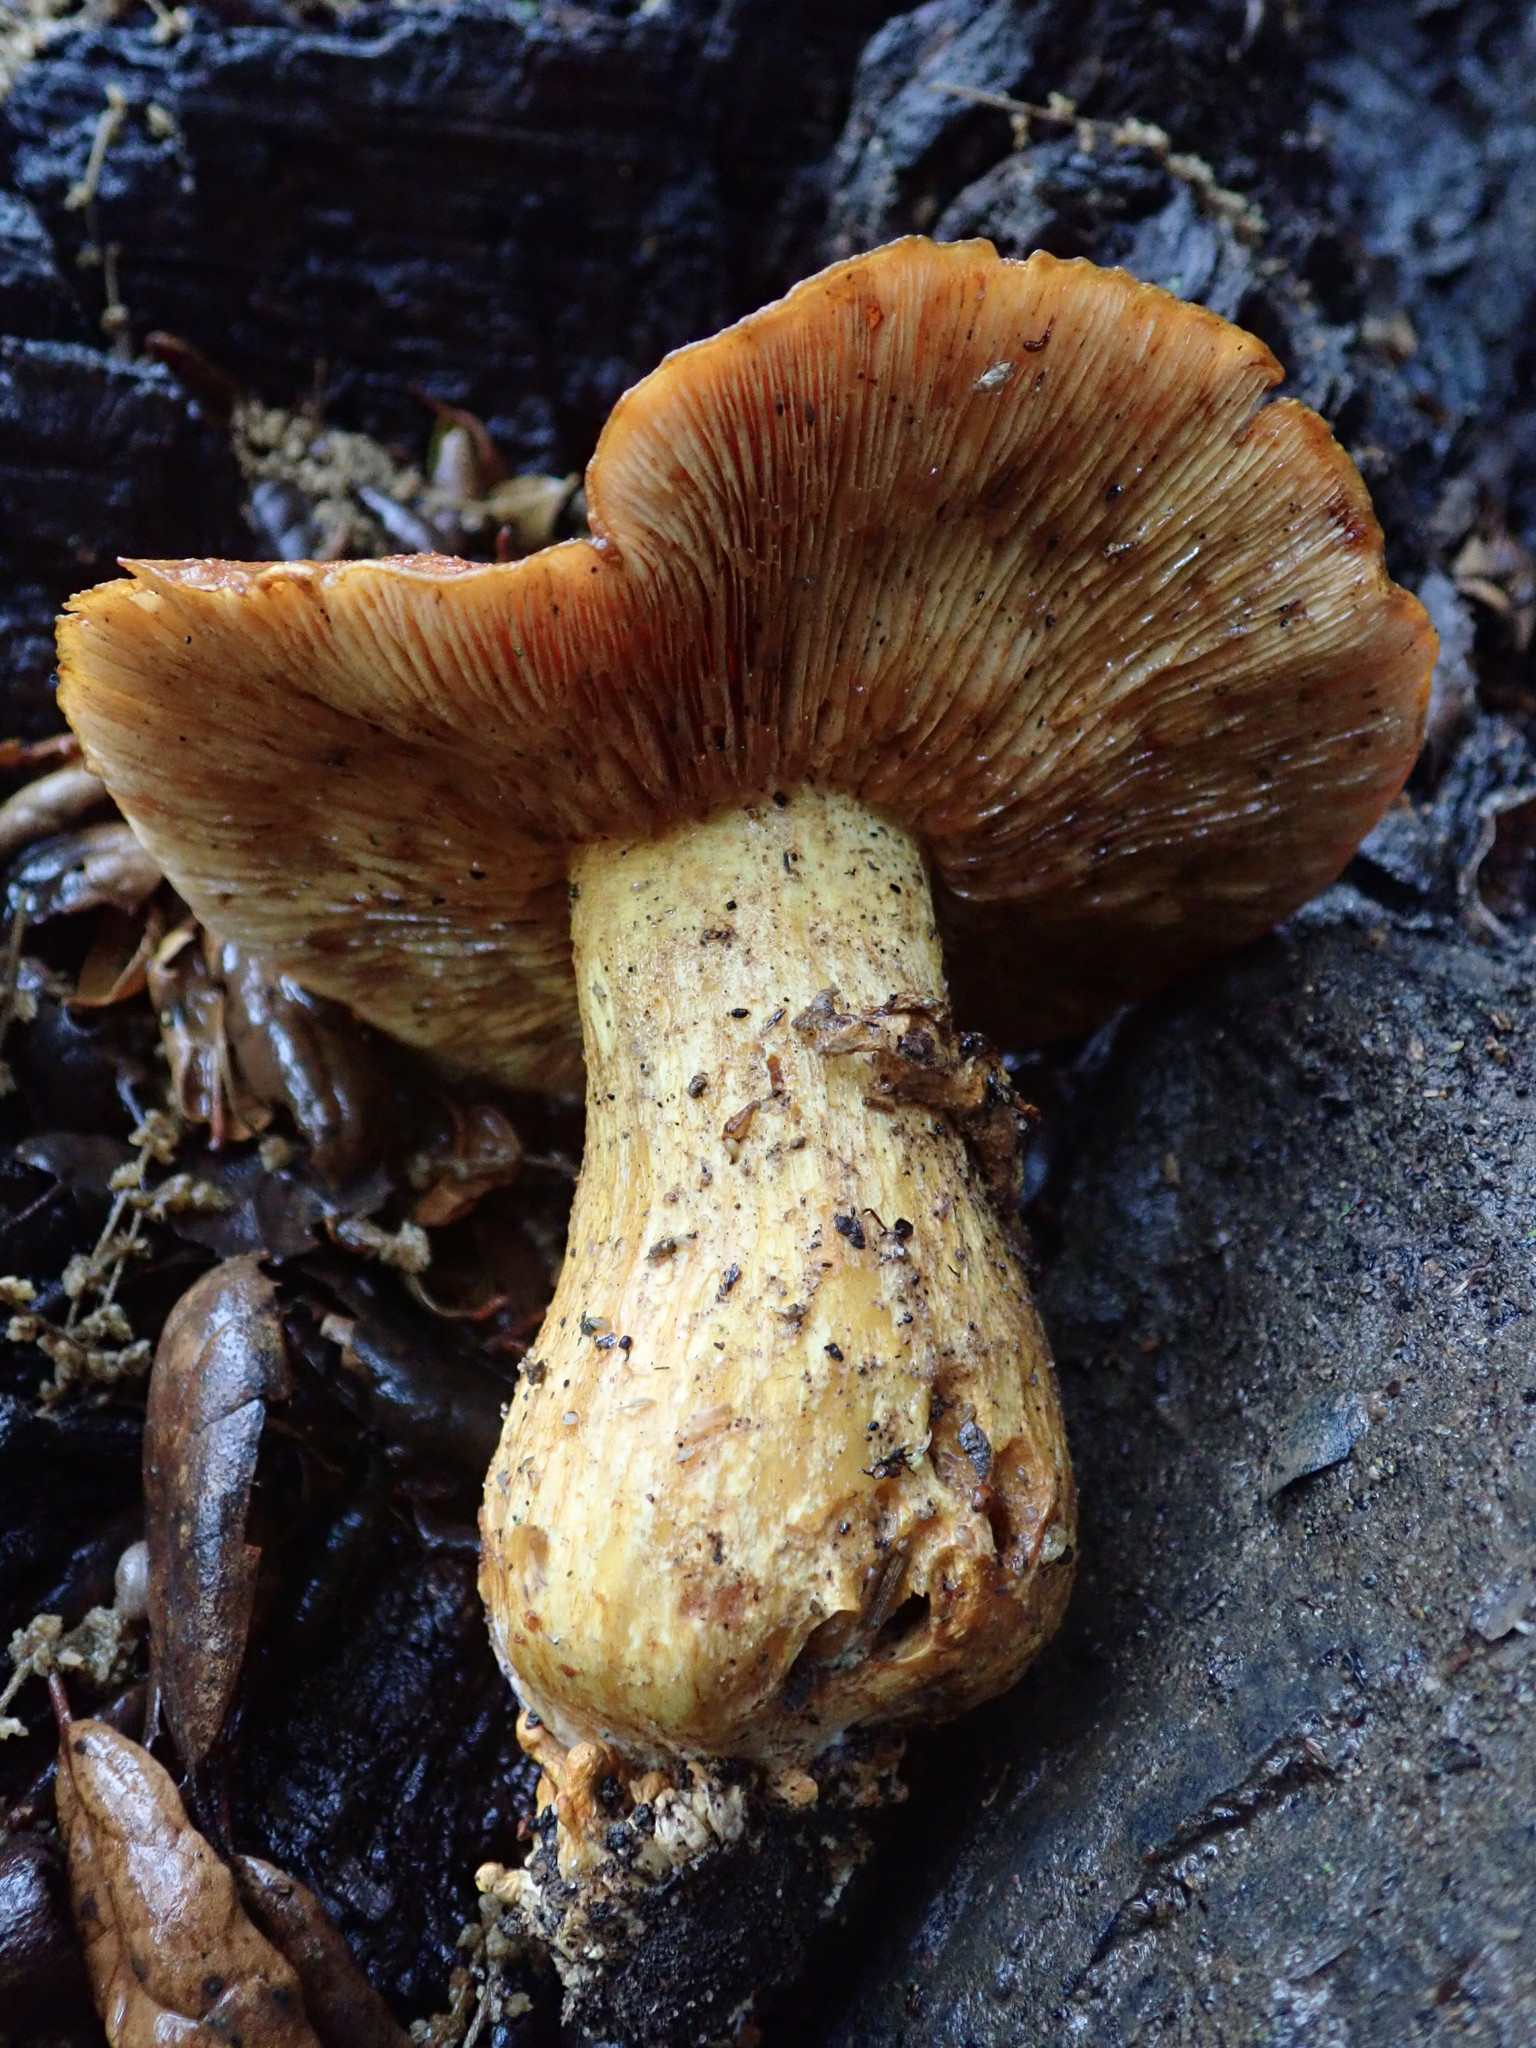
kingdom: Fungi
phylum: Basidiomycota
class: Agaricomycetes
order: Agaricales
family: Hymenogastraceae
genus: Gymnopilus
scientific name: Gymnopilus ventricosus
